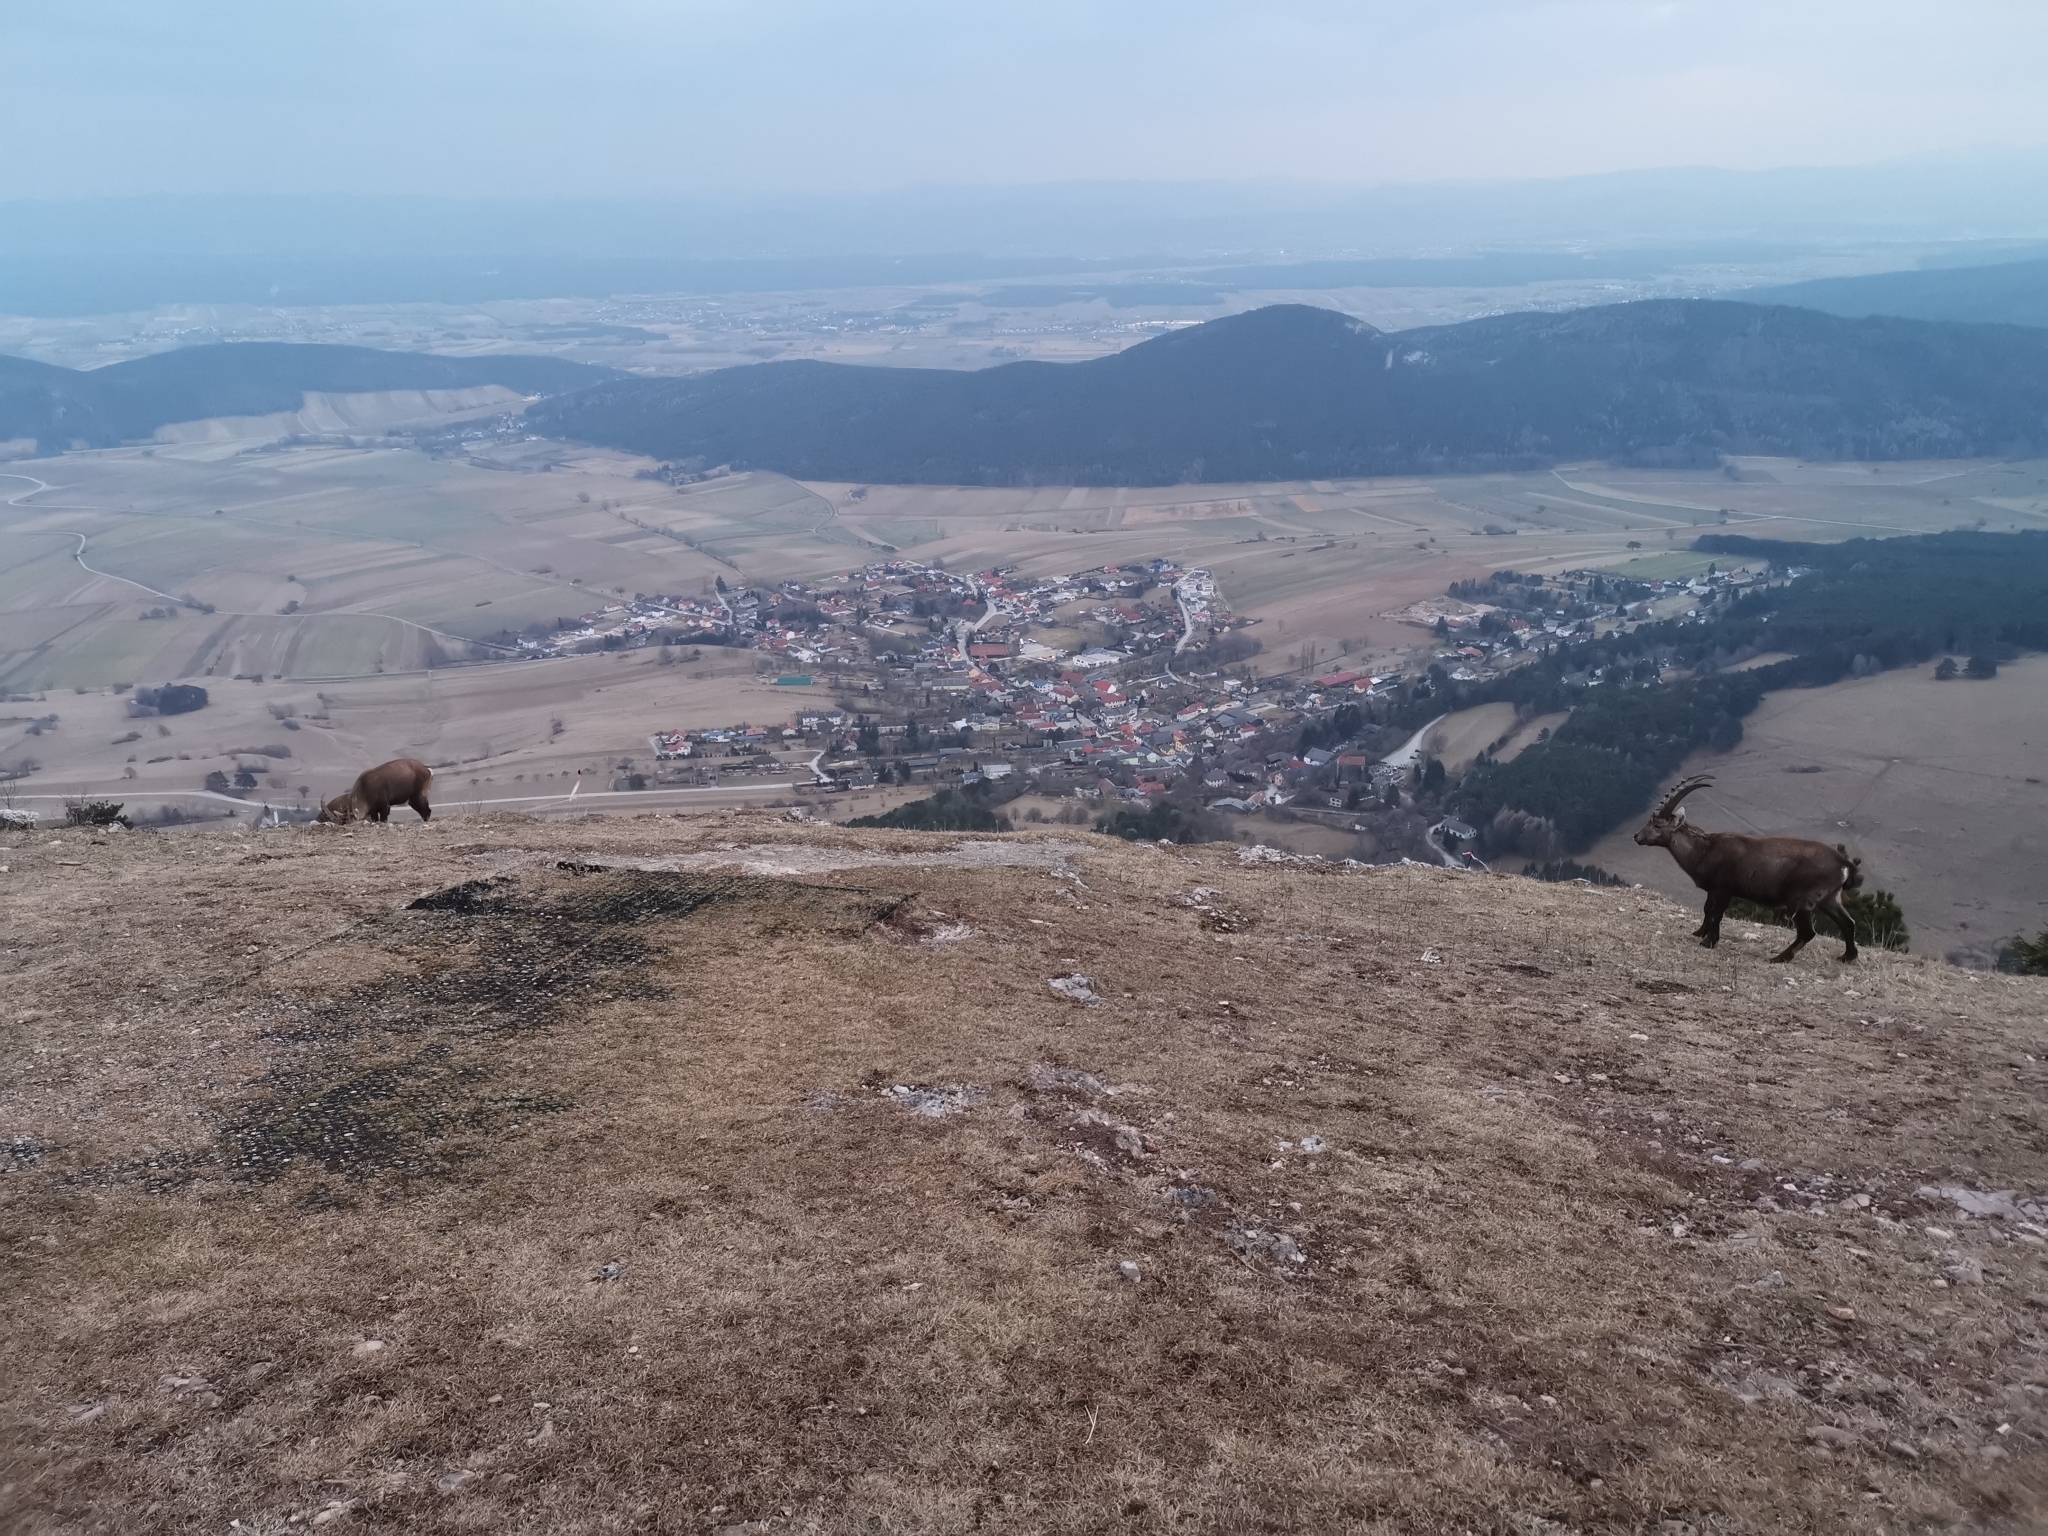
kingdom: Animalia
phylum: Chordata
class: Mammalia
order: Artiodactyla
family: Bovidae
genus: Capra
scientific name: Capra ibex
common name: Alpine ibex
